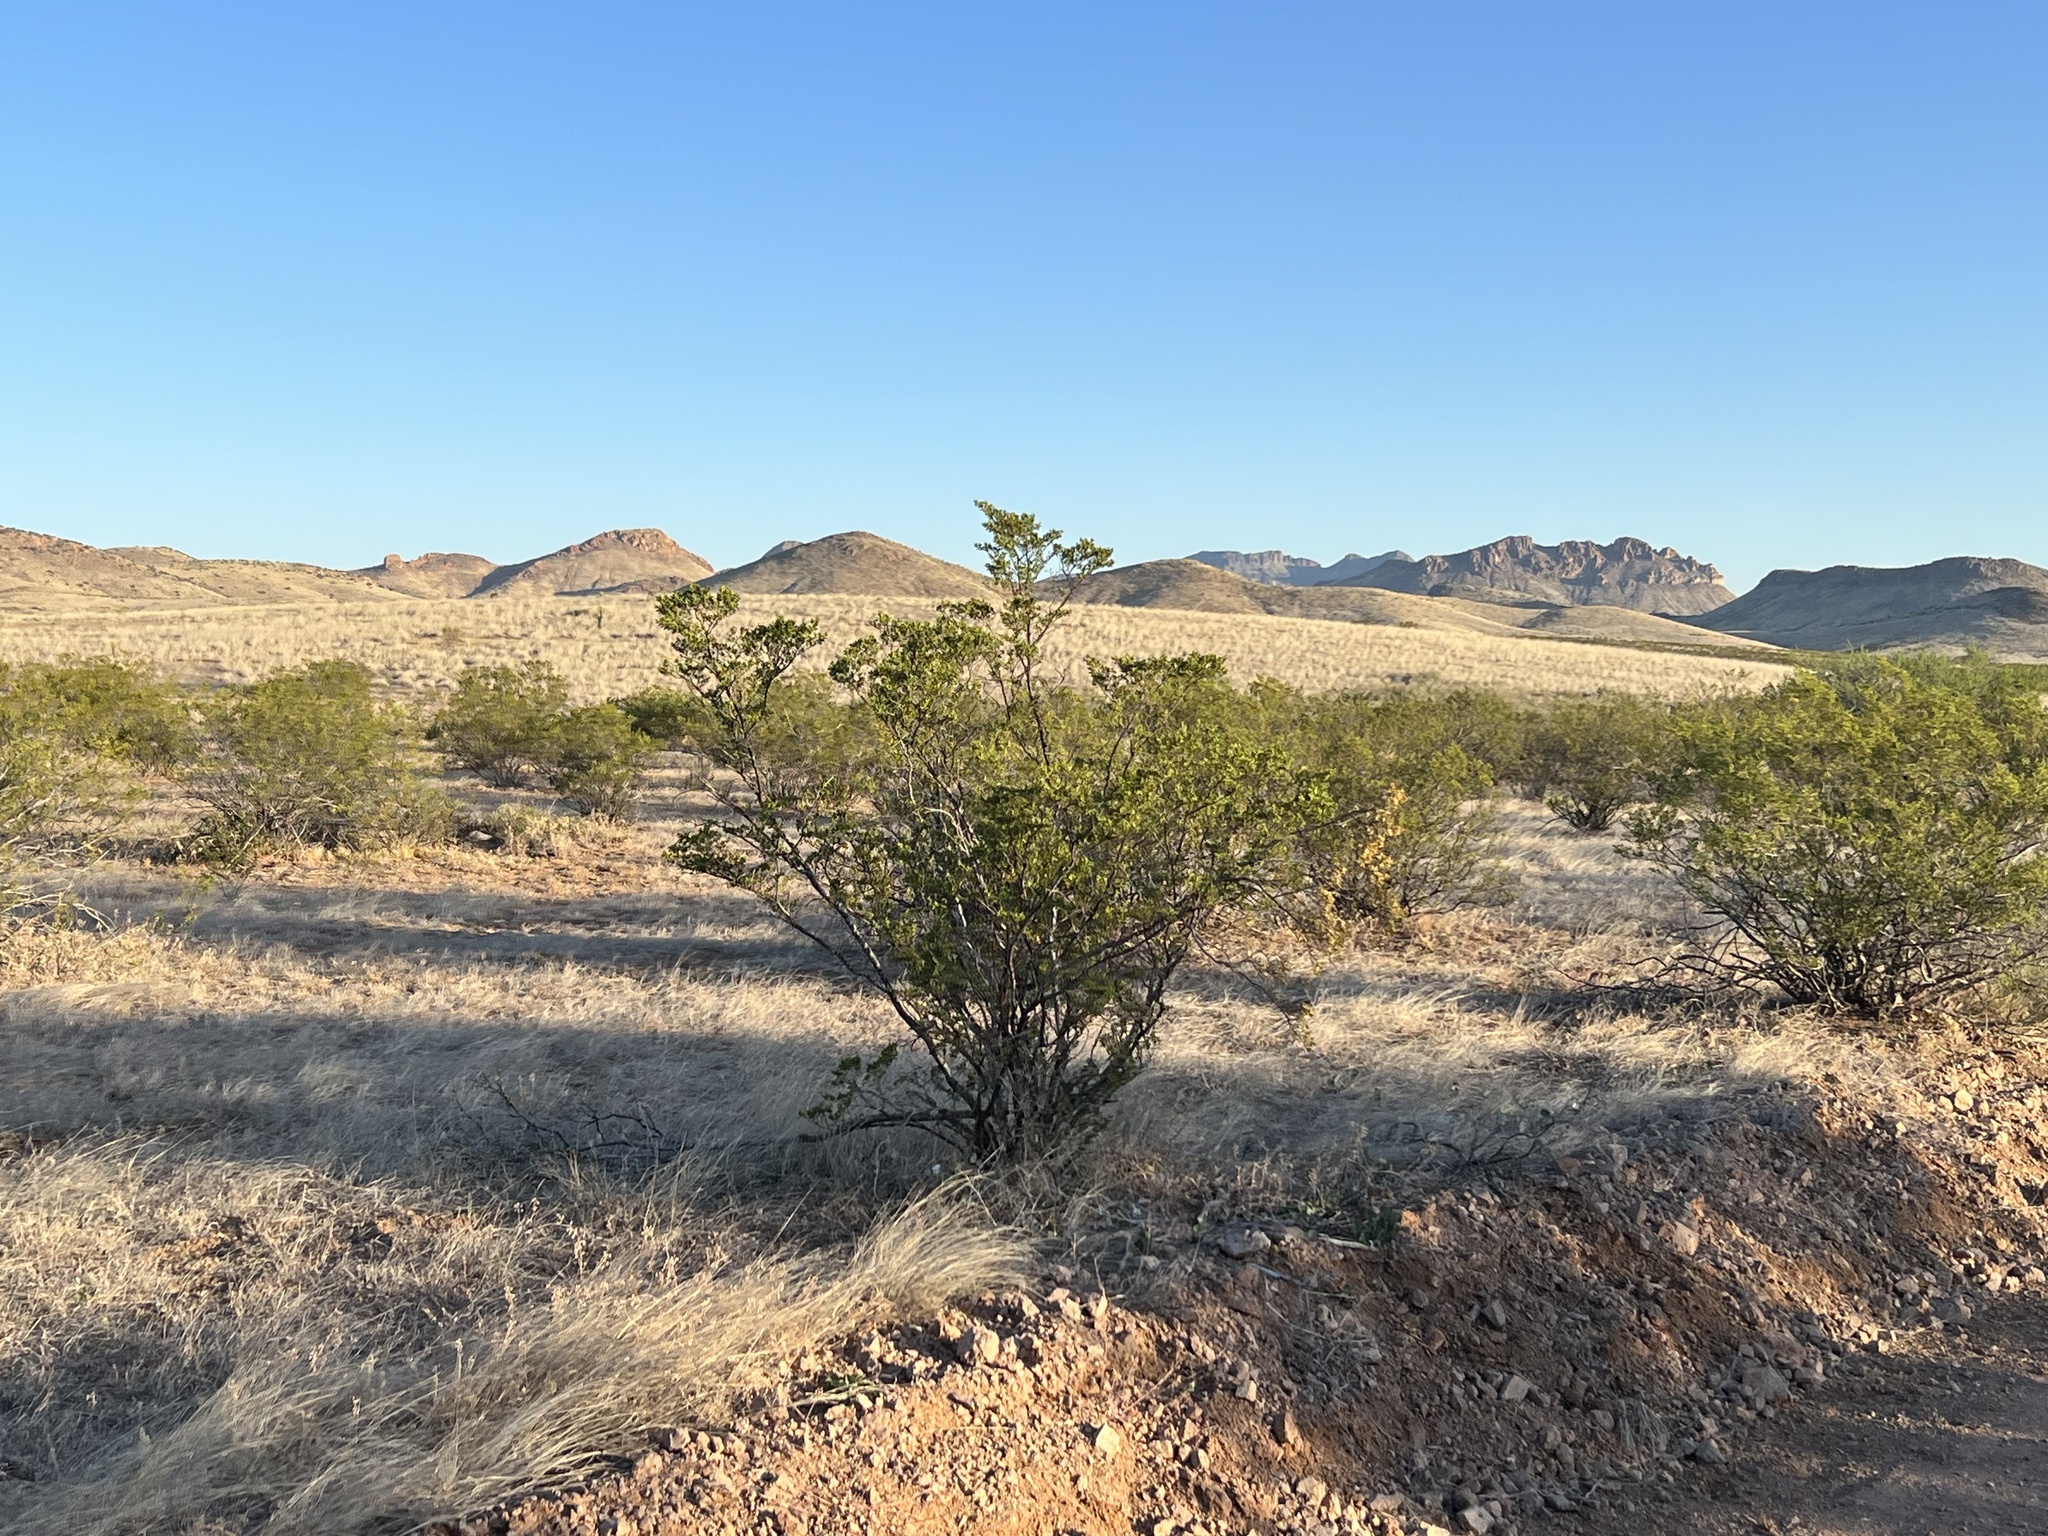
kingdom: Plantae
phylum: Tracheophyta
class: Magnoliopsida
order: Zygophyllales
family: Zygophyllaceae
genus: Larrea
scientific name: Larrea tridentata
